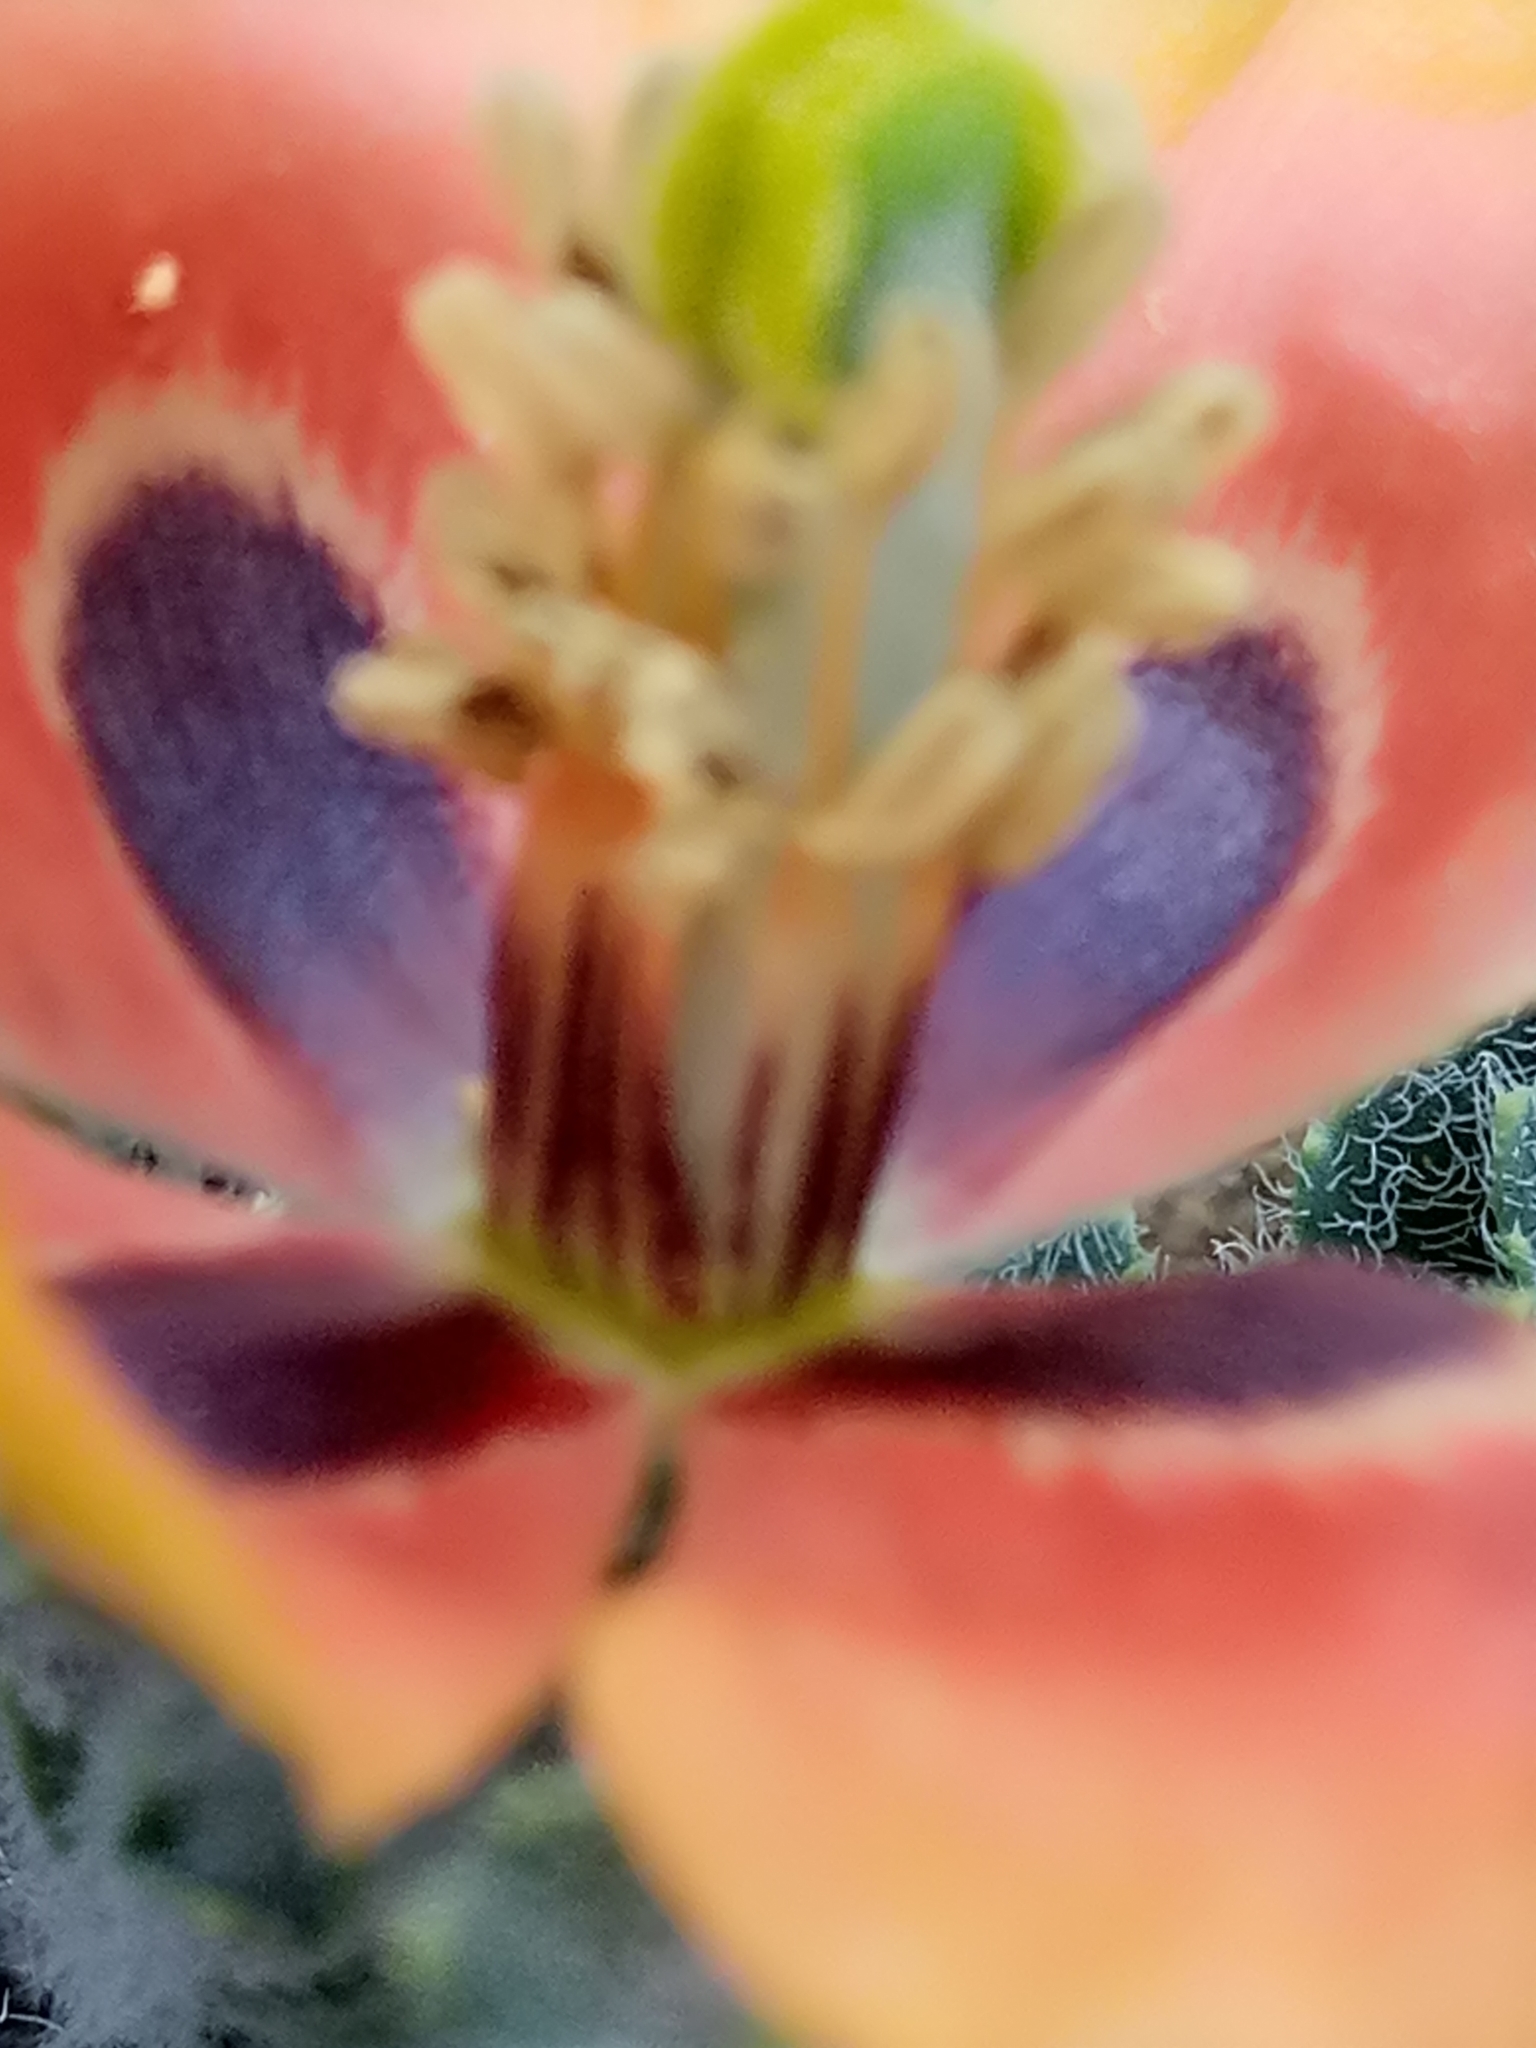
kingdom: Plantae
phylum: Tracheophyta
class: Magnoliopsida
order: Ranunculales
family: Papaveraceae
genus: Glaucium
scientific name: Glaucium corniculatum
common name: Red horned-poppy
